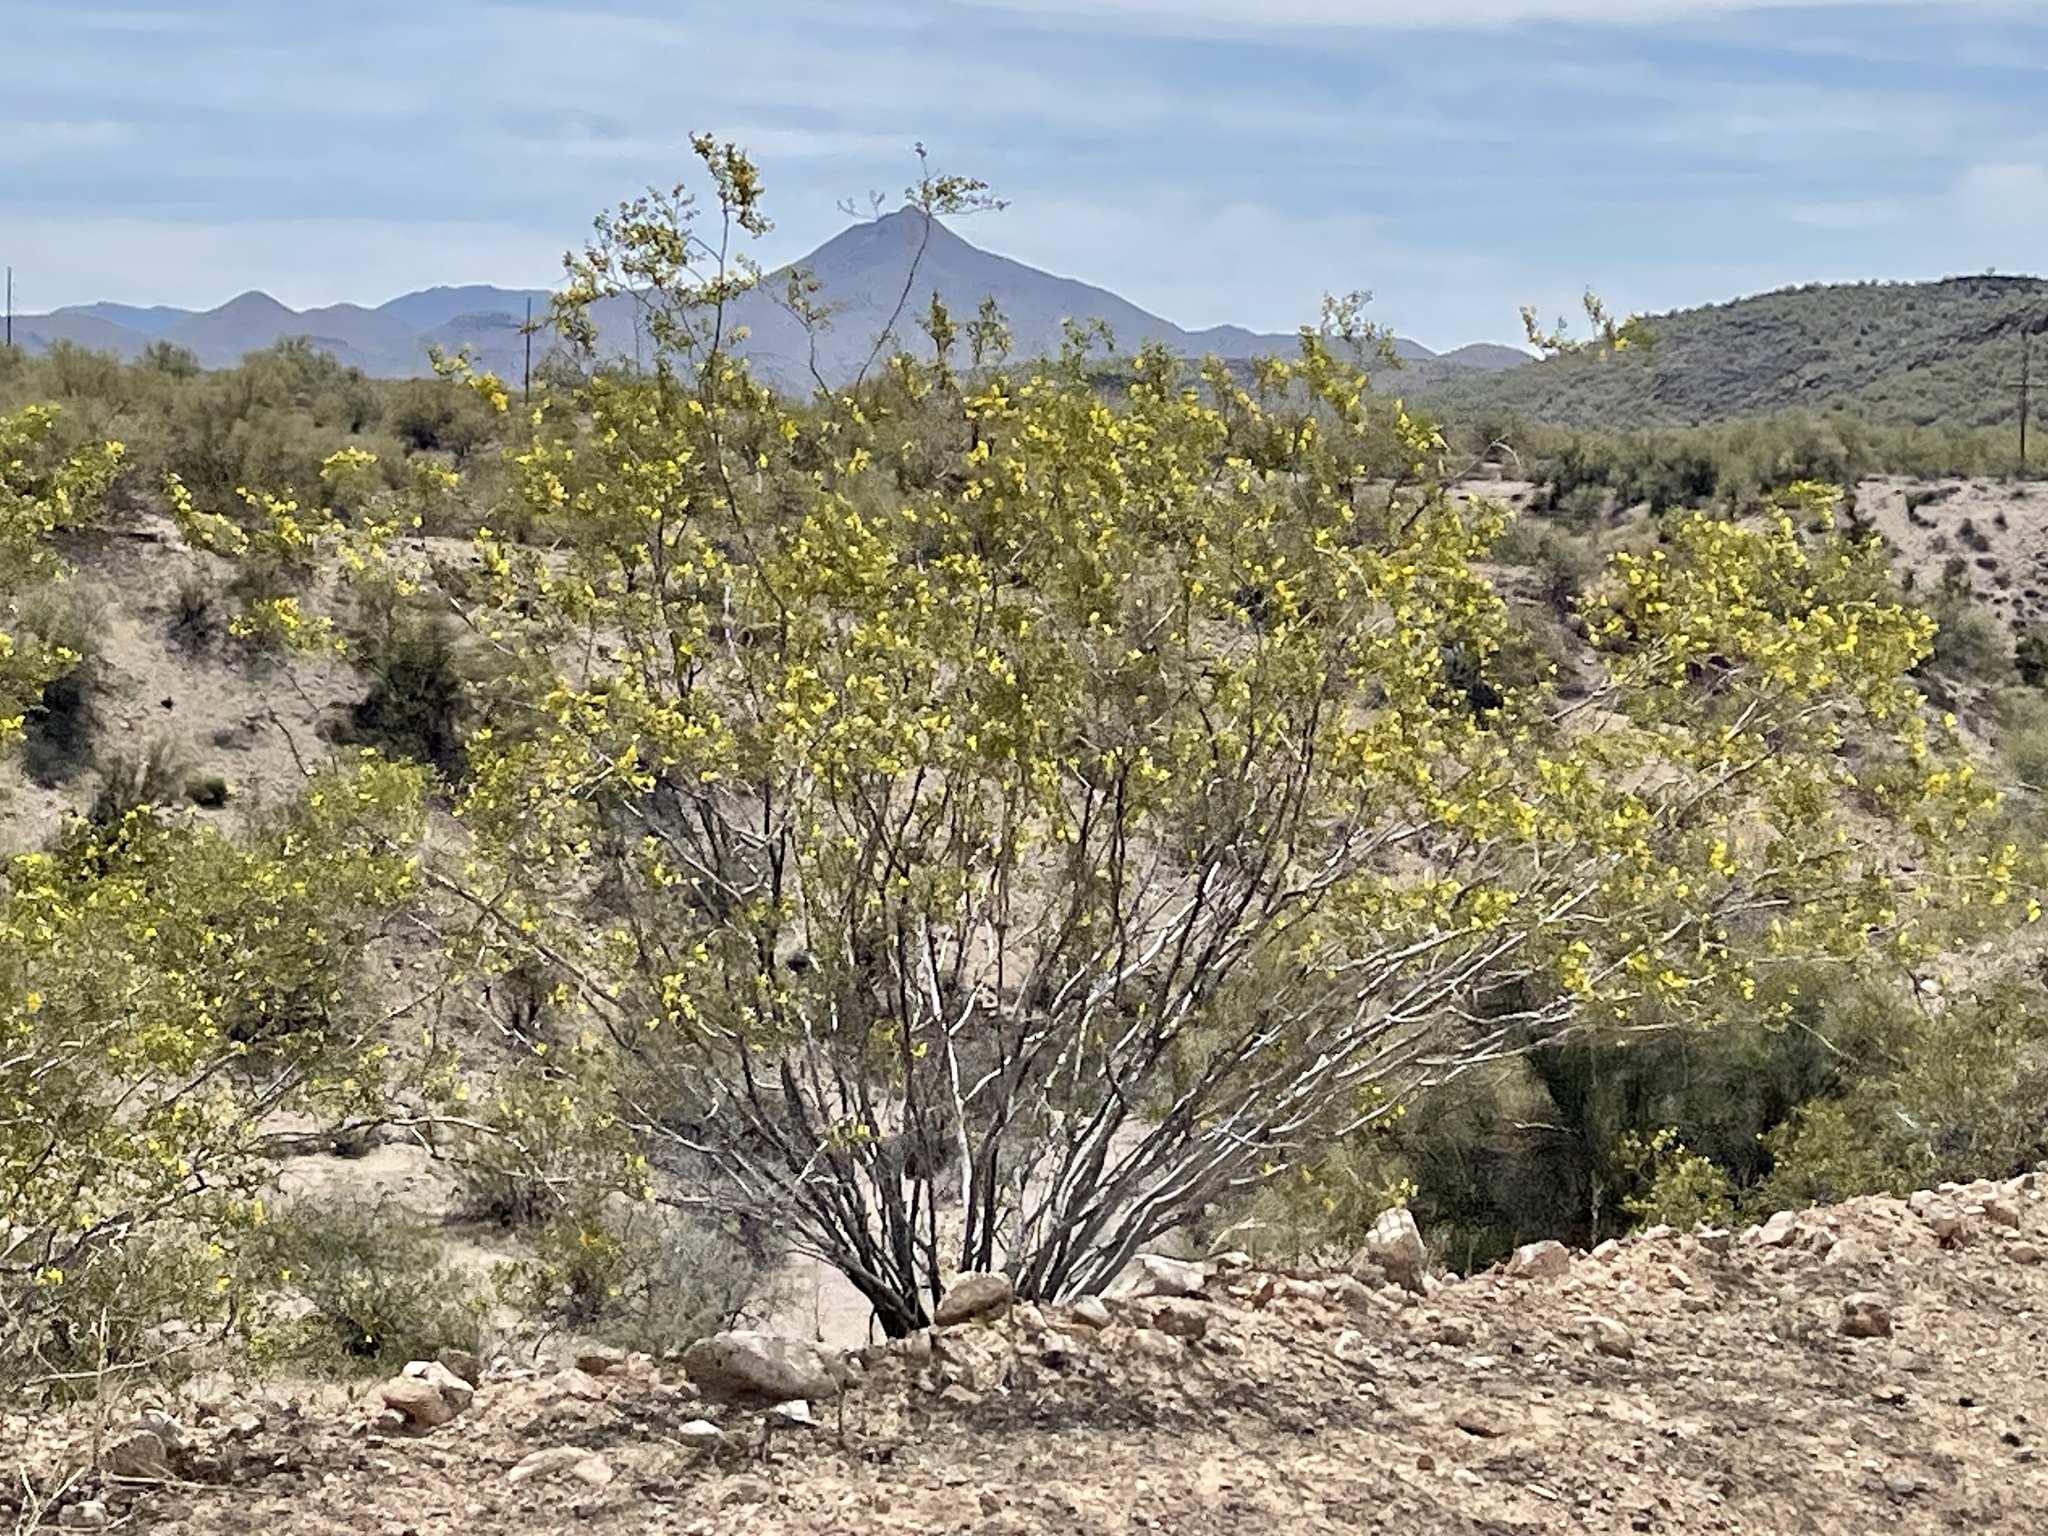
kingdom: Plantae
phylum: Tracheophyta
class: Magnoliopsida
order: Zygophyllales
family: Zygophyllaceae
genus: Larrea
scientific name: Larrea tridentata
